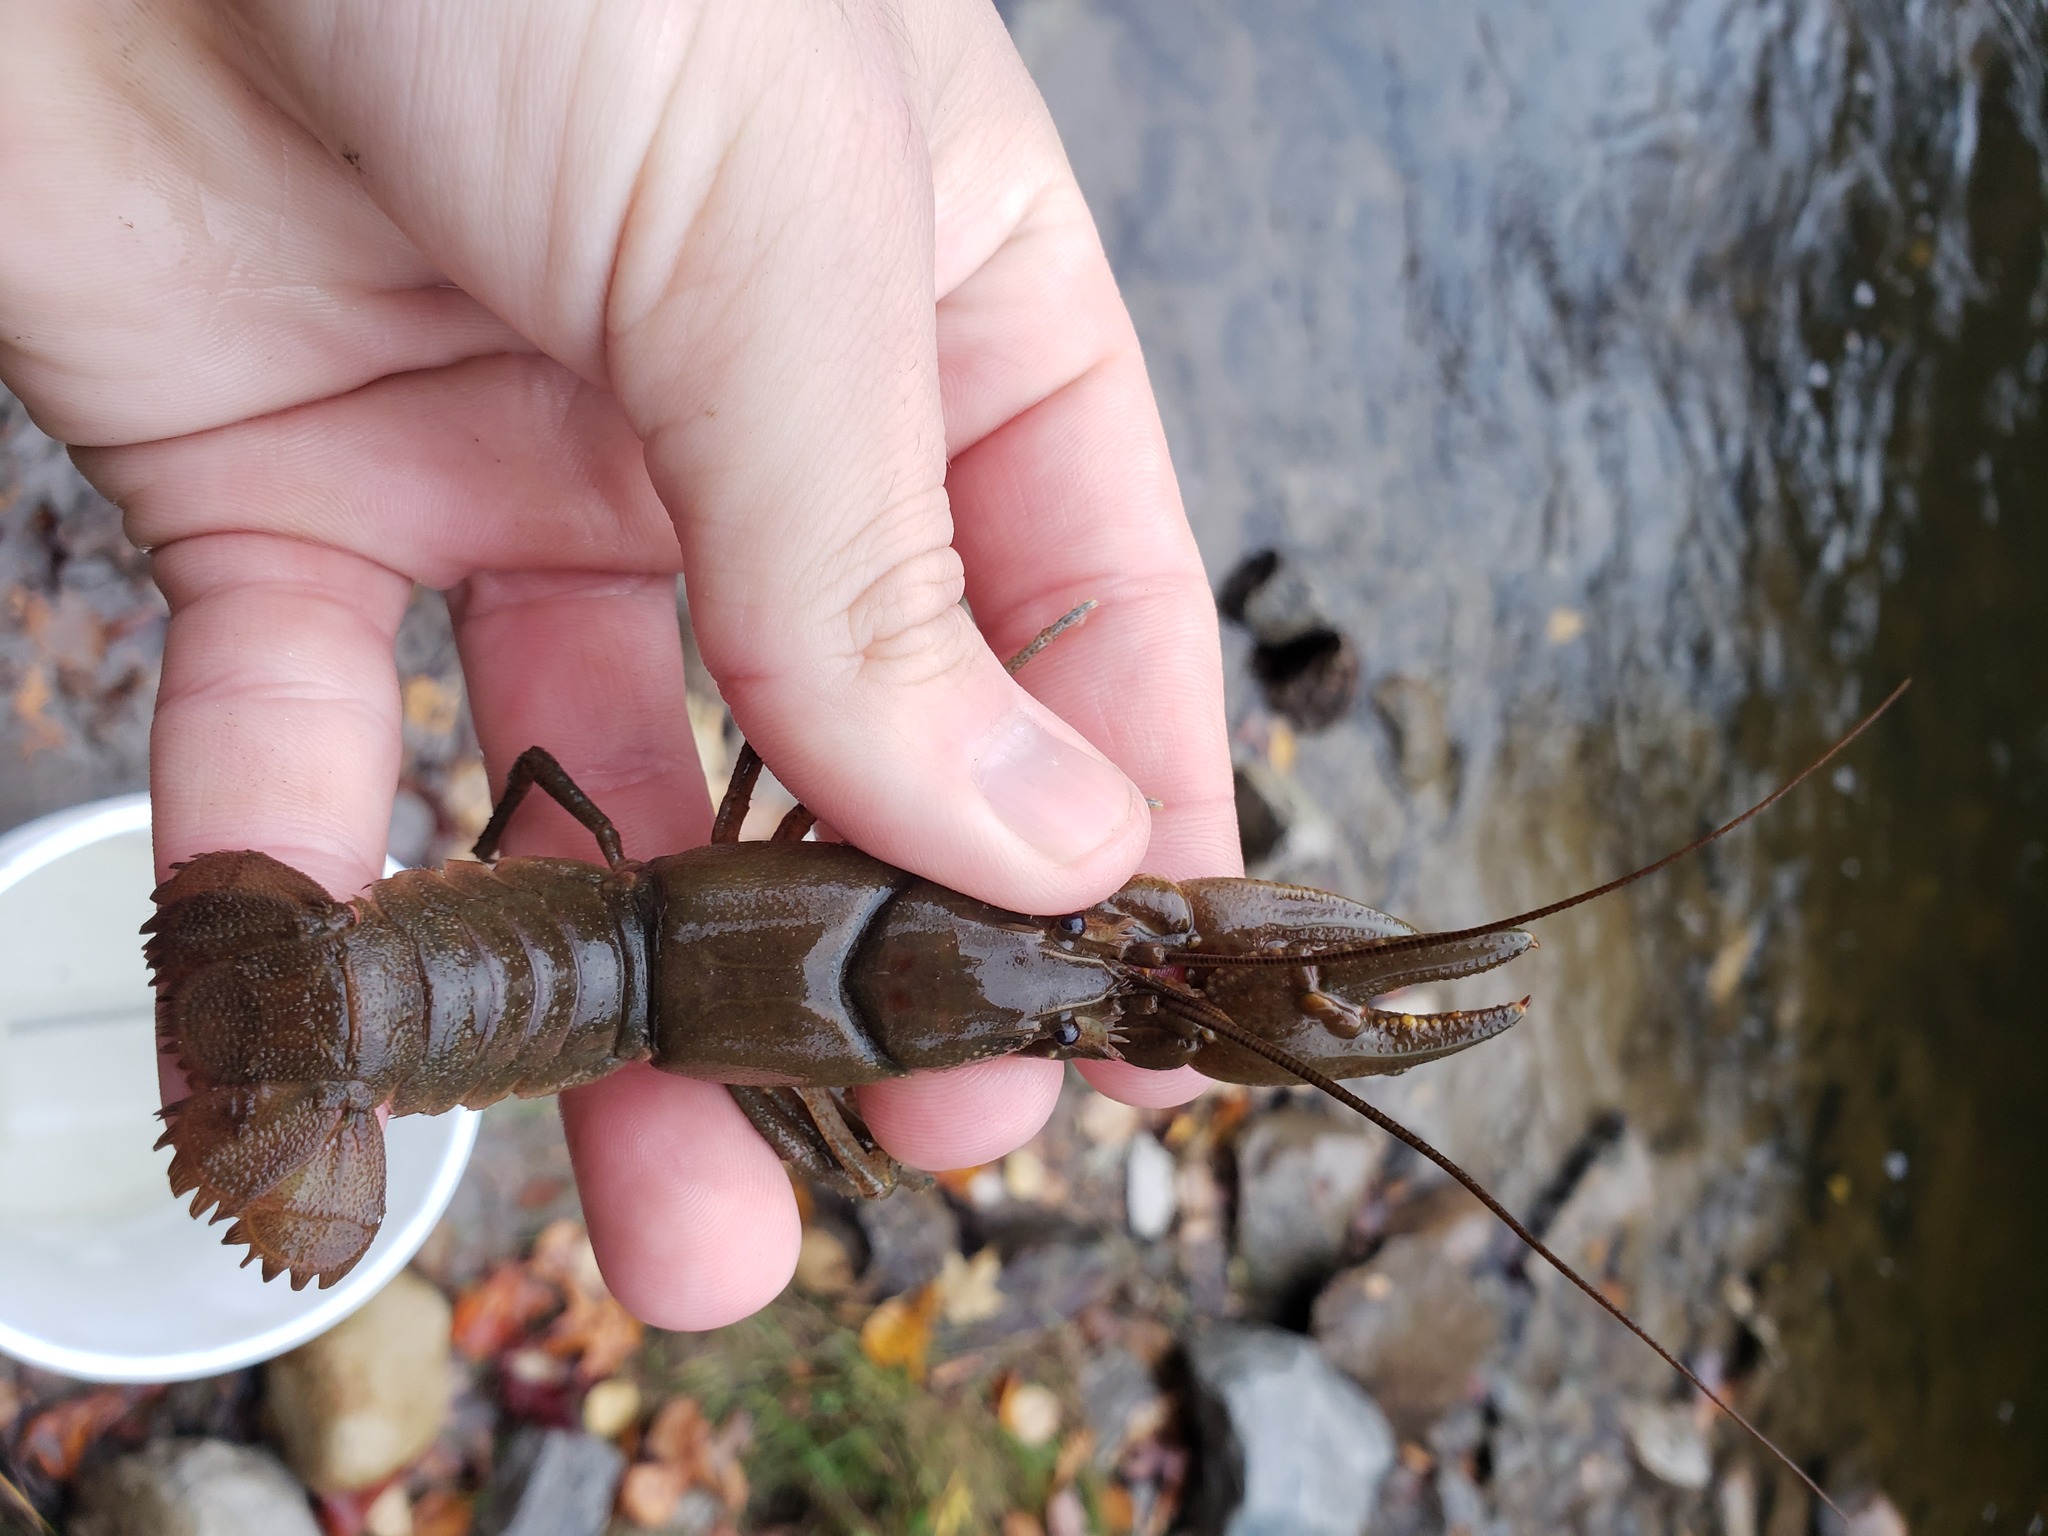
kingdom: Animalia
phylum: Arthropoda
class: Malacostraca
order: Decapoda
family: Cambaridae
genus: Cambarus
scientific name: Cambarus robustus
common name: Big water crayfish
